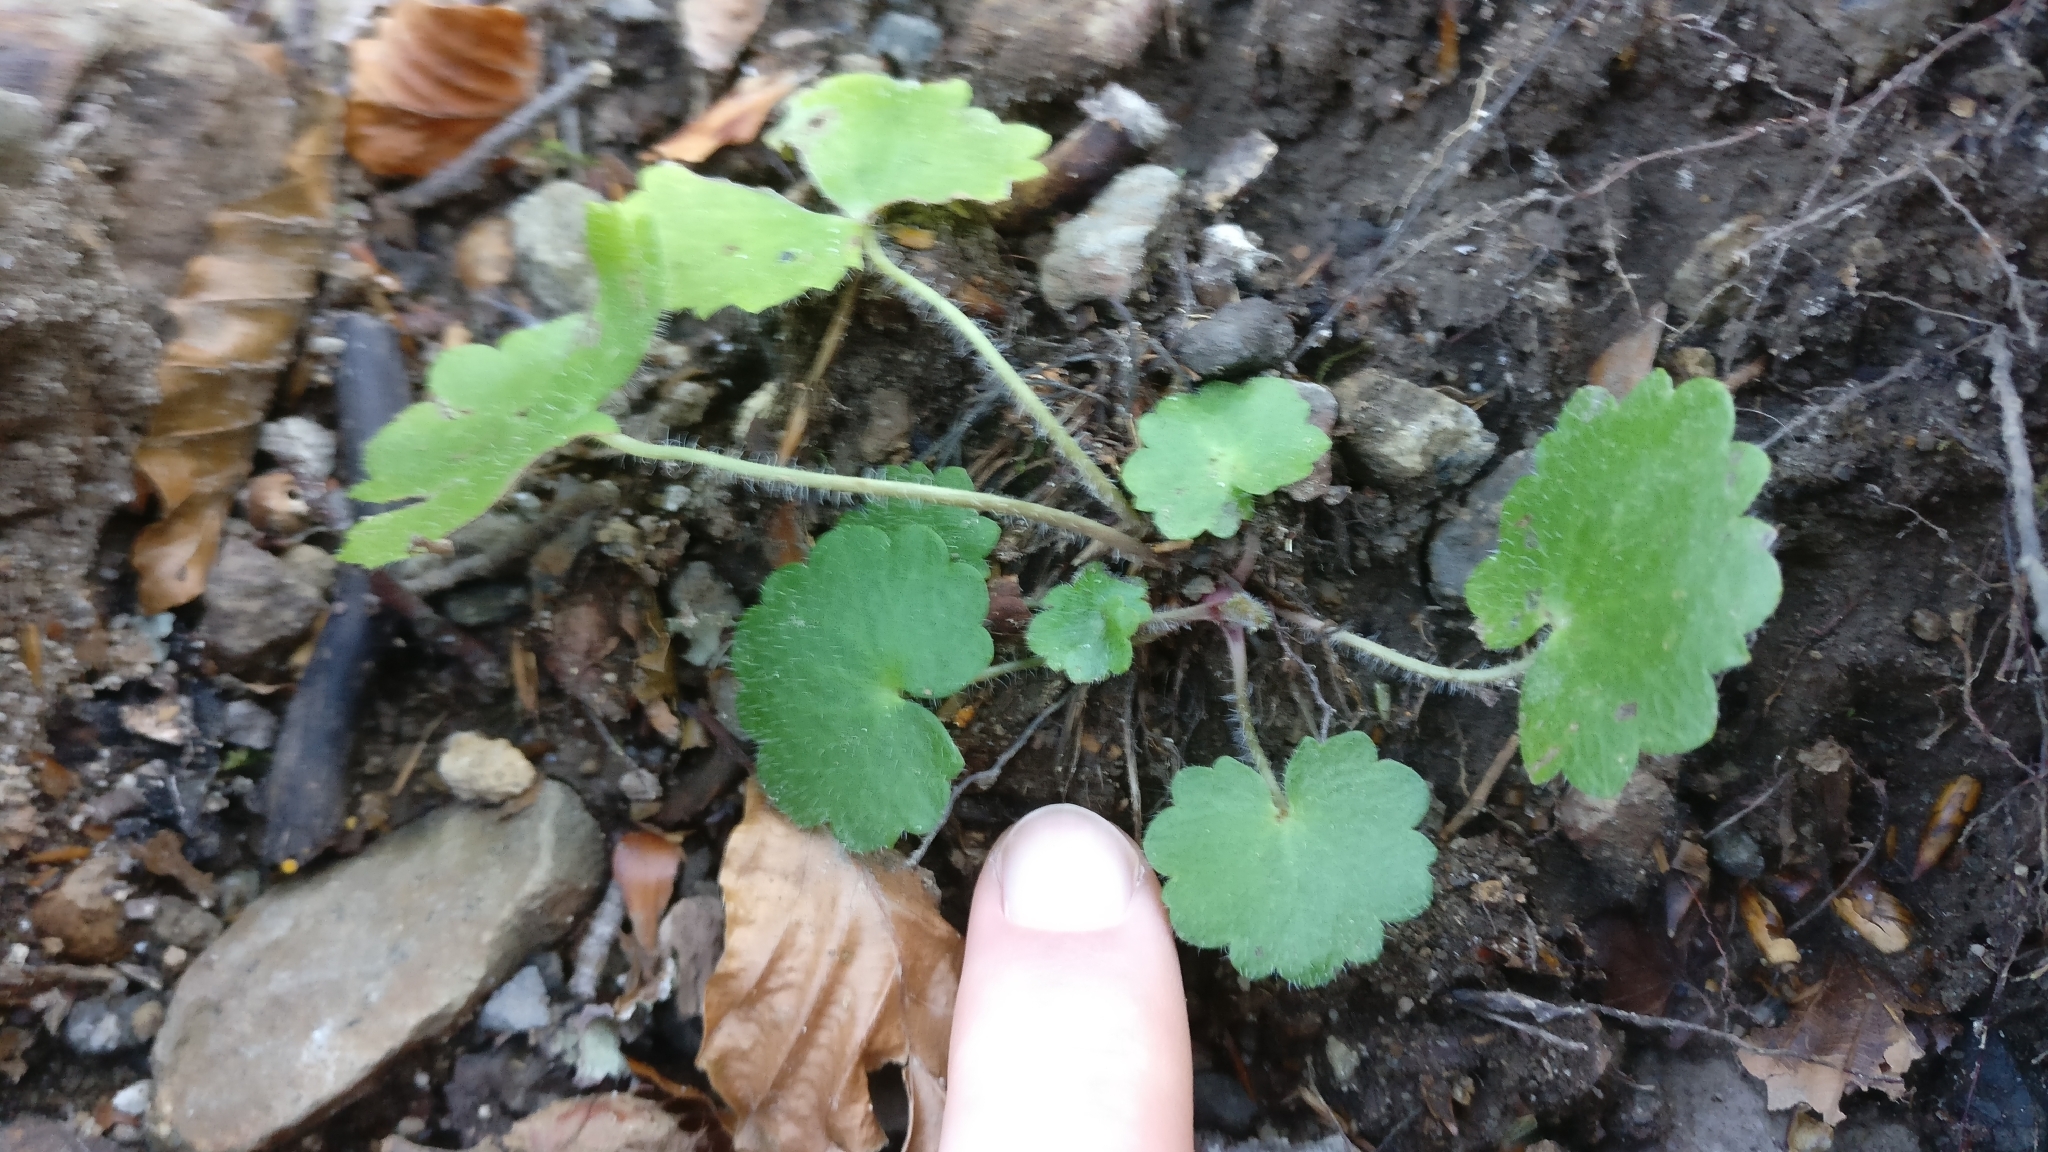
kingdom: Plantae
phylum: Tracheophyta
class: Magnoliopsida
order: Saxifragales
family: Saxifragaceae
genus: Saxifraga
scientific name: Saxifraga rotundifolia
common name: Round-leaved saxifrage
